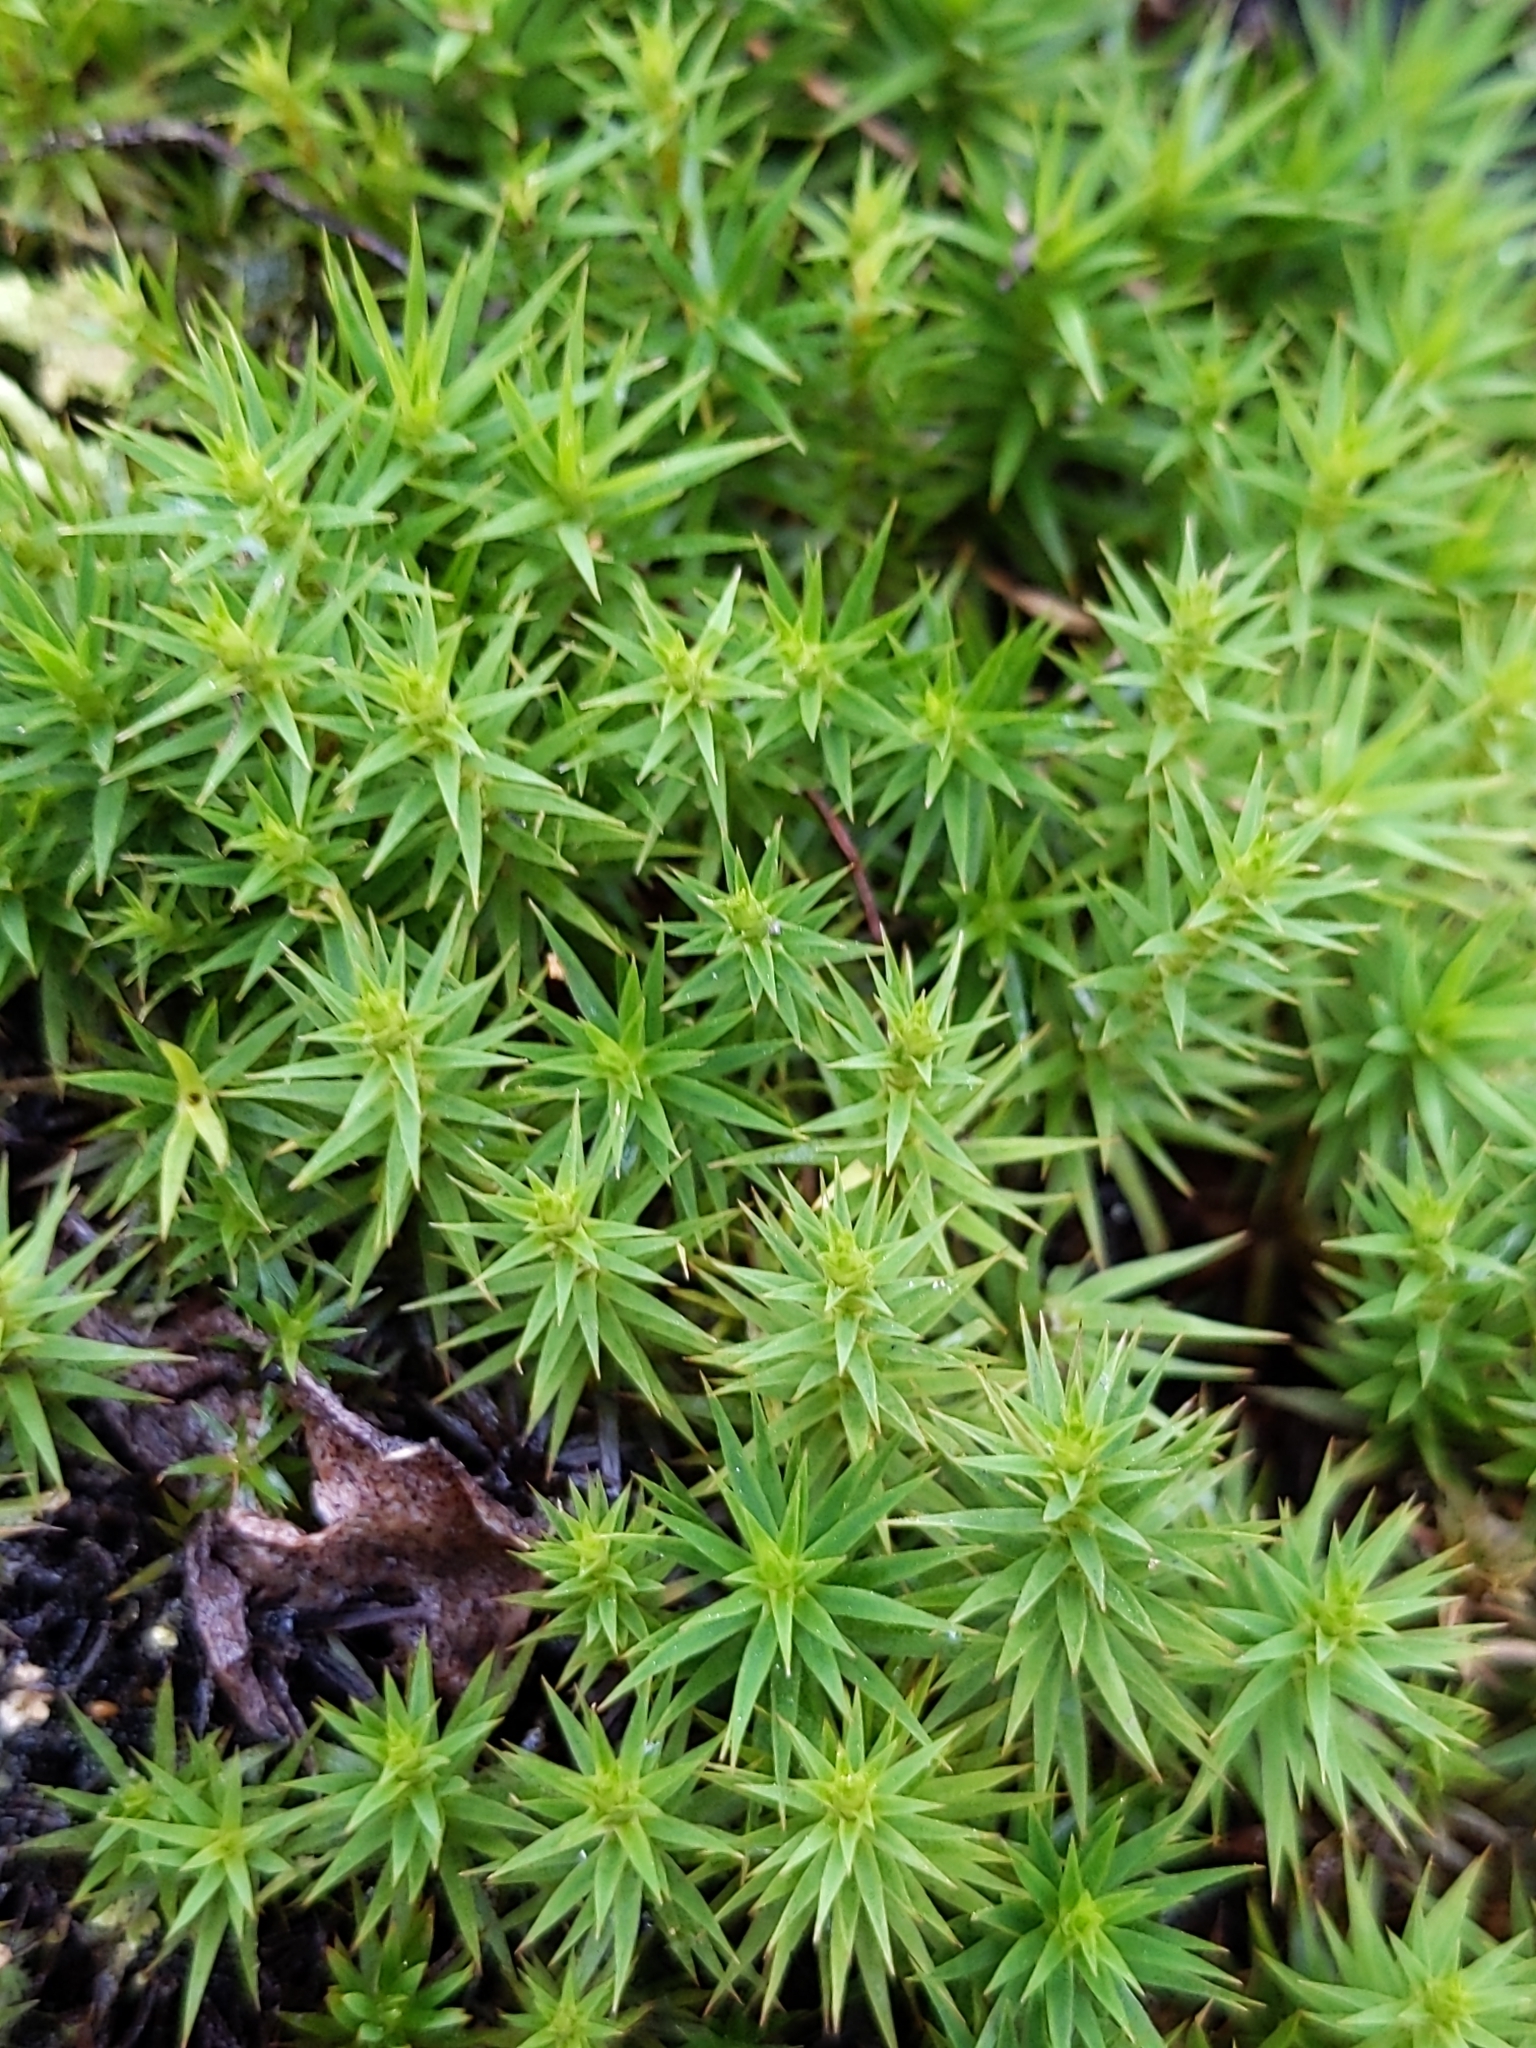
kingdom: Plantae
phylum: Bryophyta
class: Polytrichopsida
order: Polytrichales
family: Polytrichaceae
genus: Polytrichum
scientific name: Polytrichum formosum
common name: Bank haircap moss
